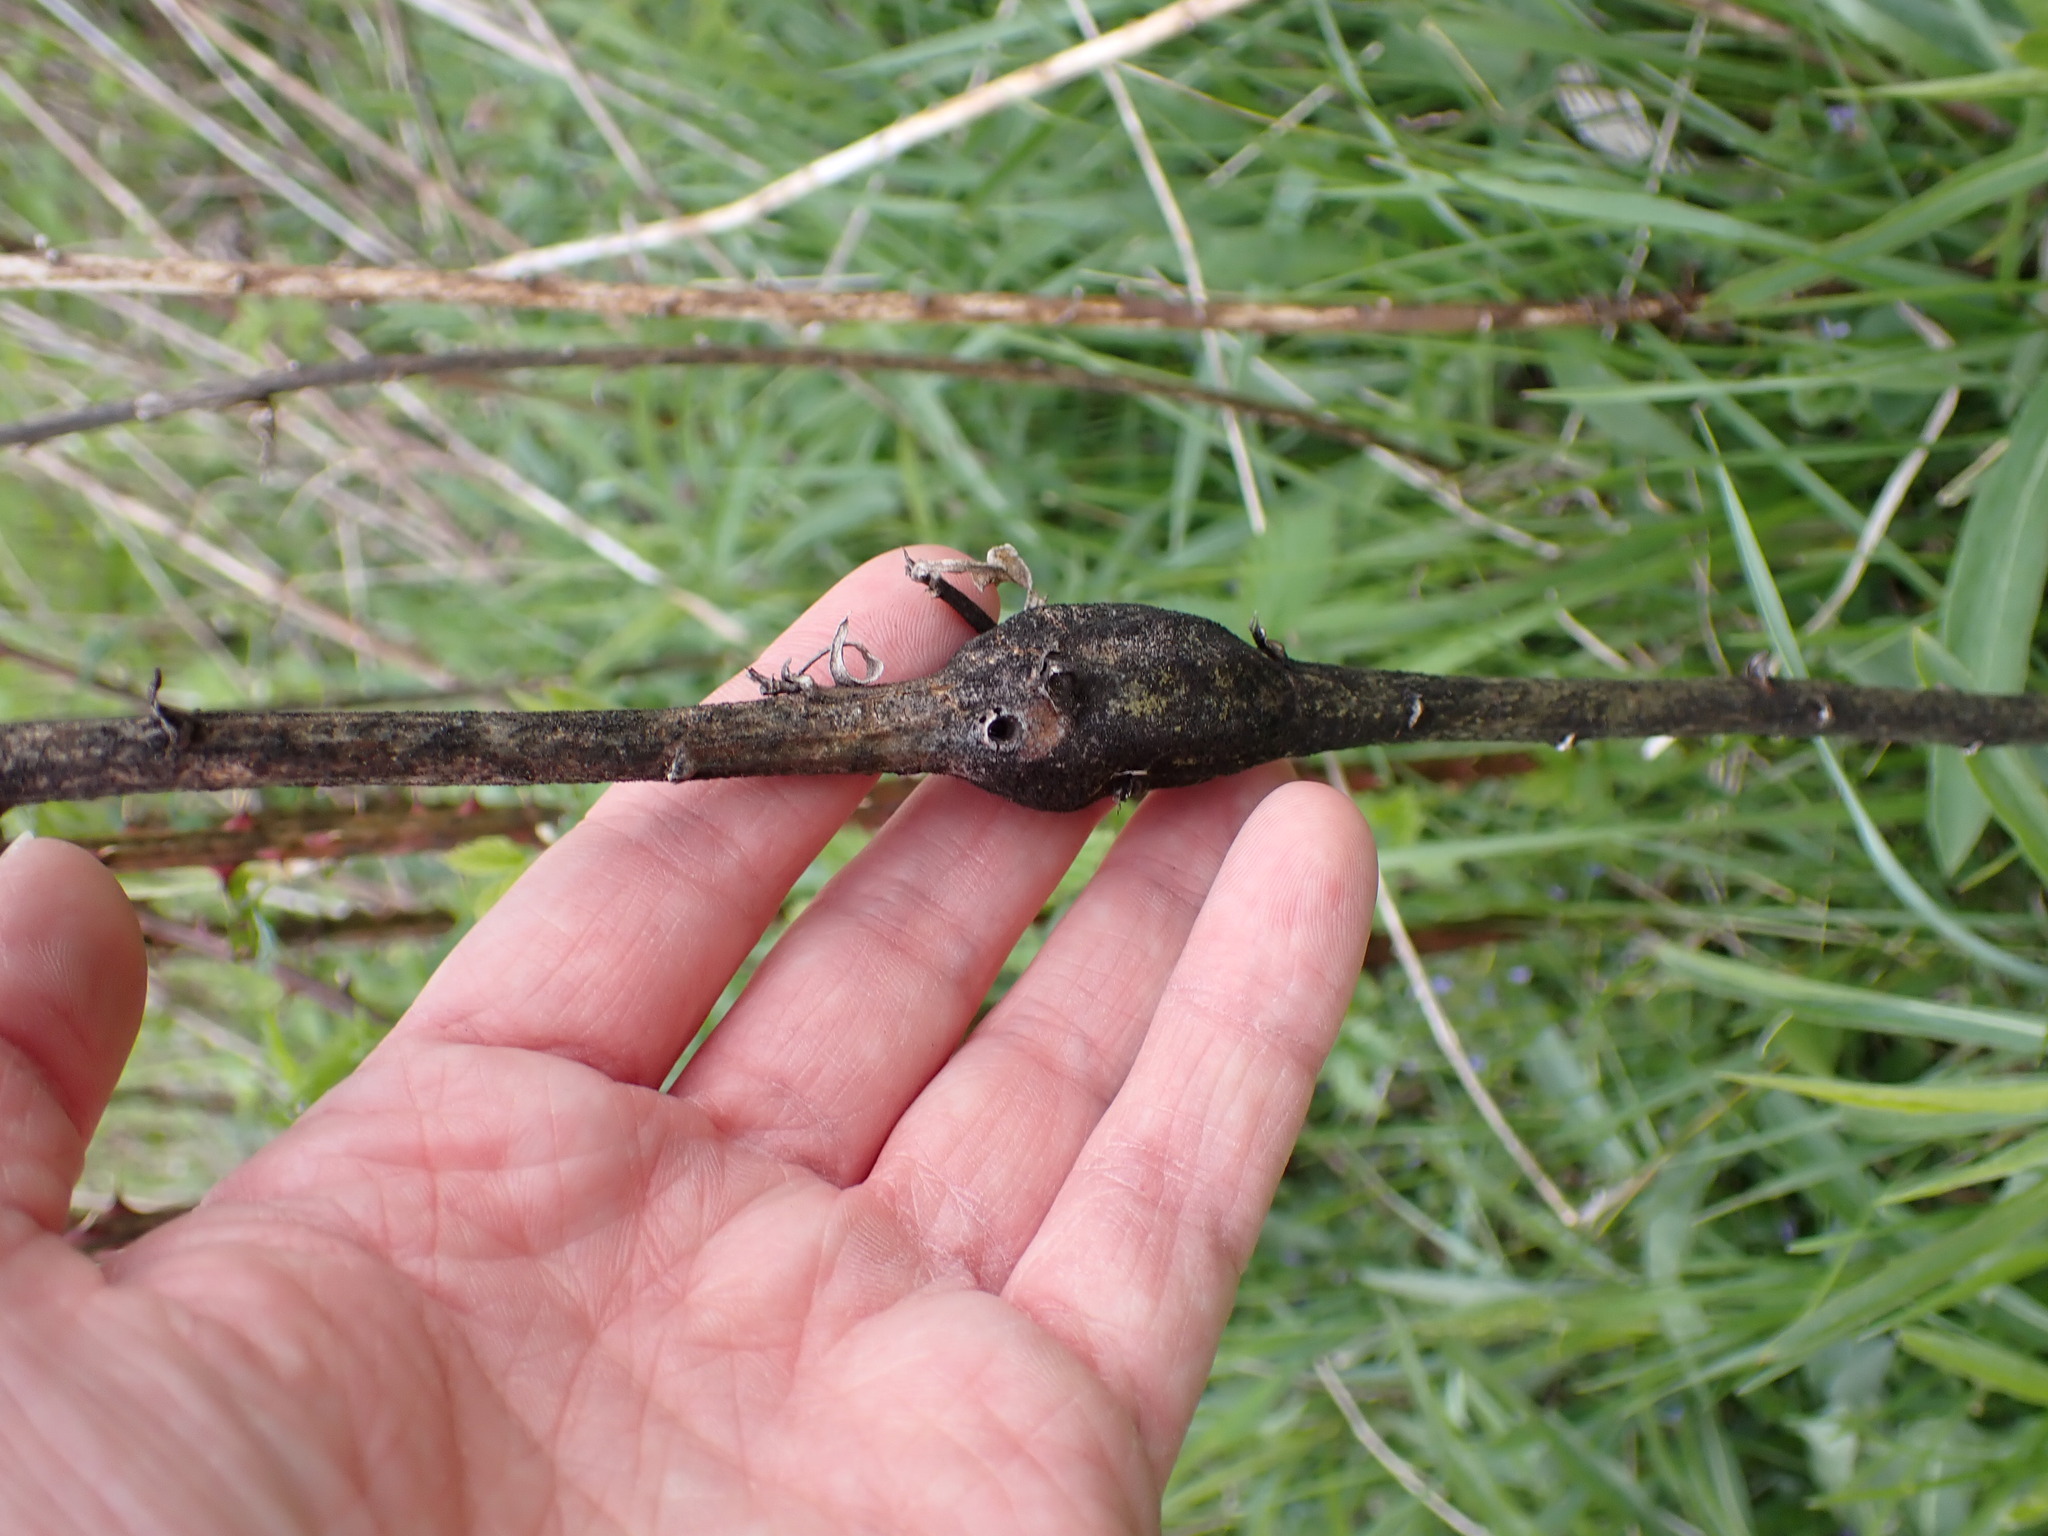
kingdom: Animalia
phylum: Arthropoda
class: Insecta
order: Lepidoptera
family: Gelechiidae
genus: Gnorimoschema
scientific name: Gnorimoschema gallaesolidaginis
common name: Goldenrod elliptical-gall moth
